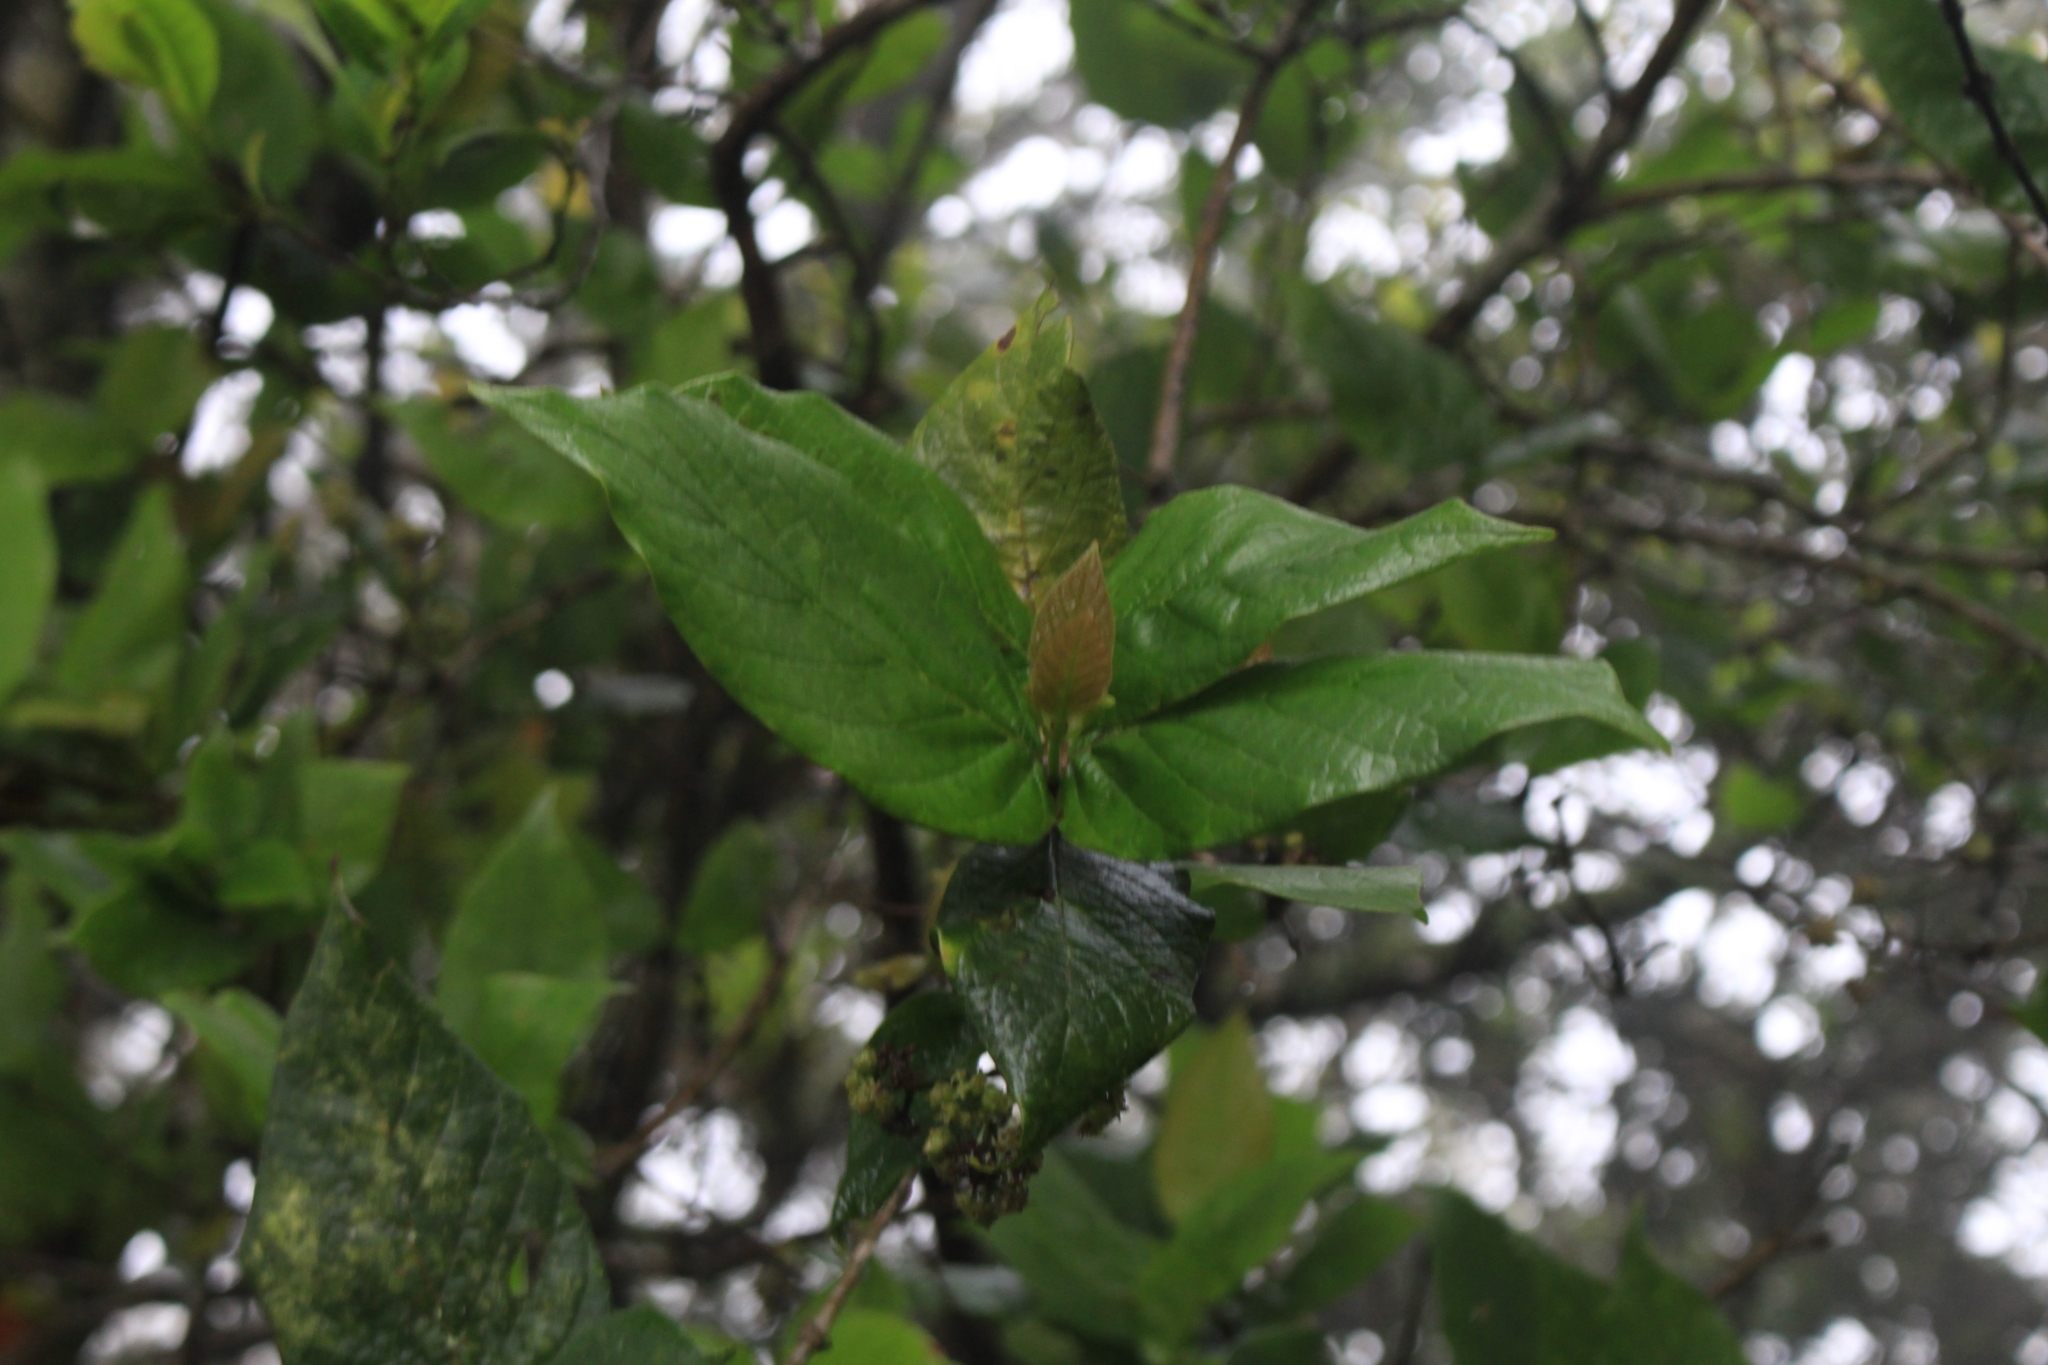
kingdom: Plantae
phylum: Tracheophyta
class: Magnoliopsida
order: Gentianales
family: Rubiaceae
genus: Rogiera
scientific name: Rogiera amoena
